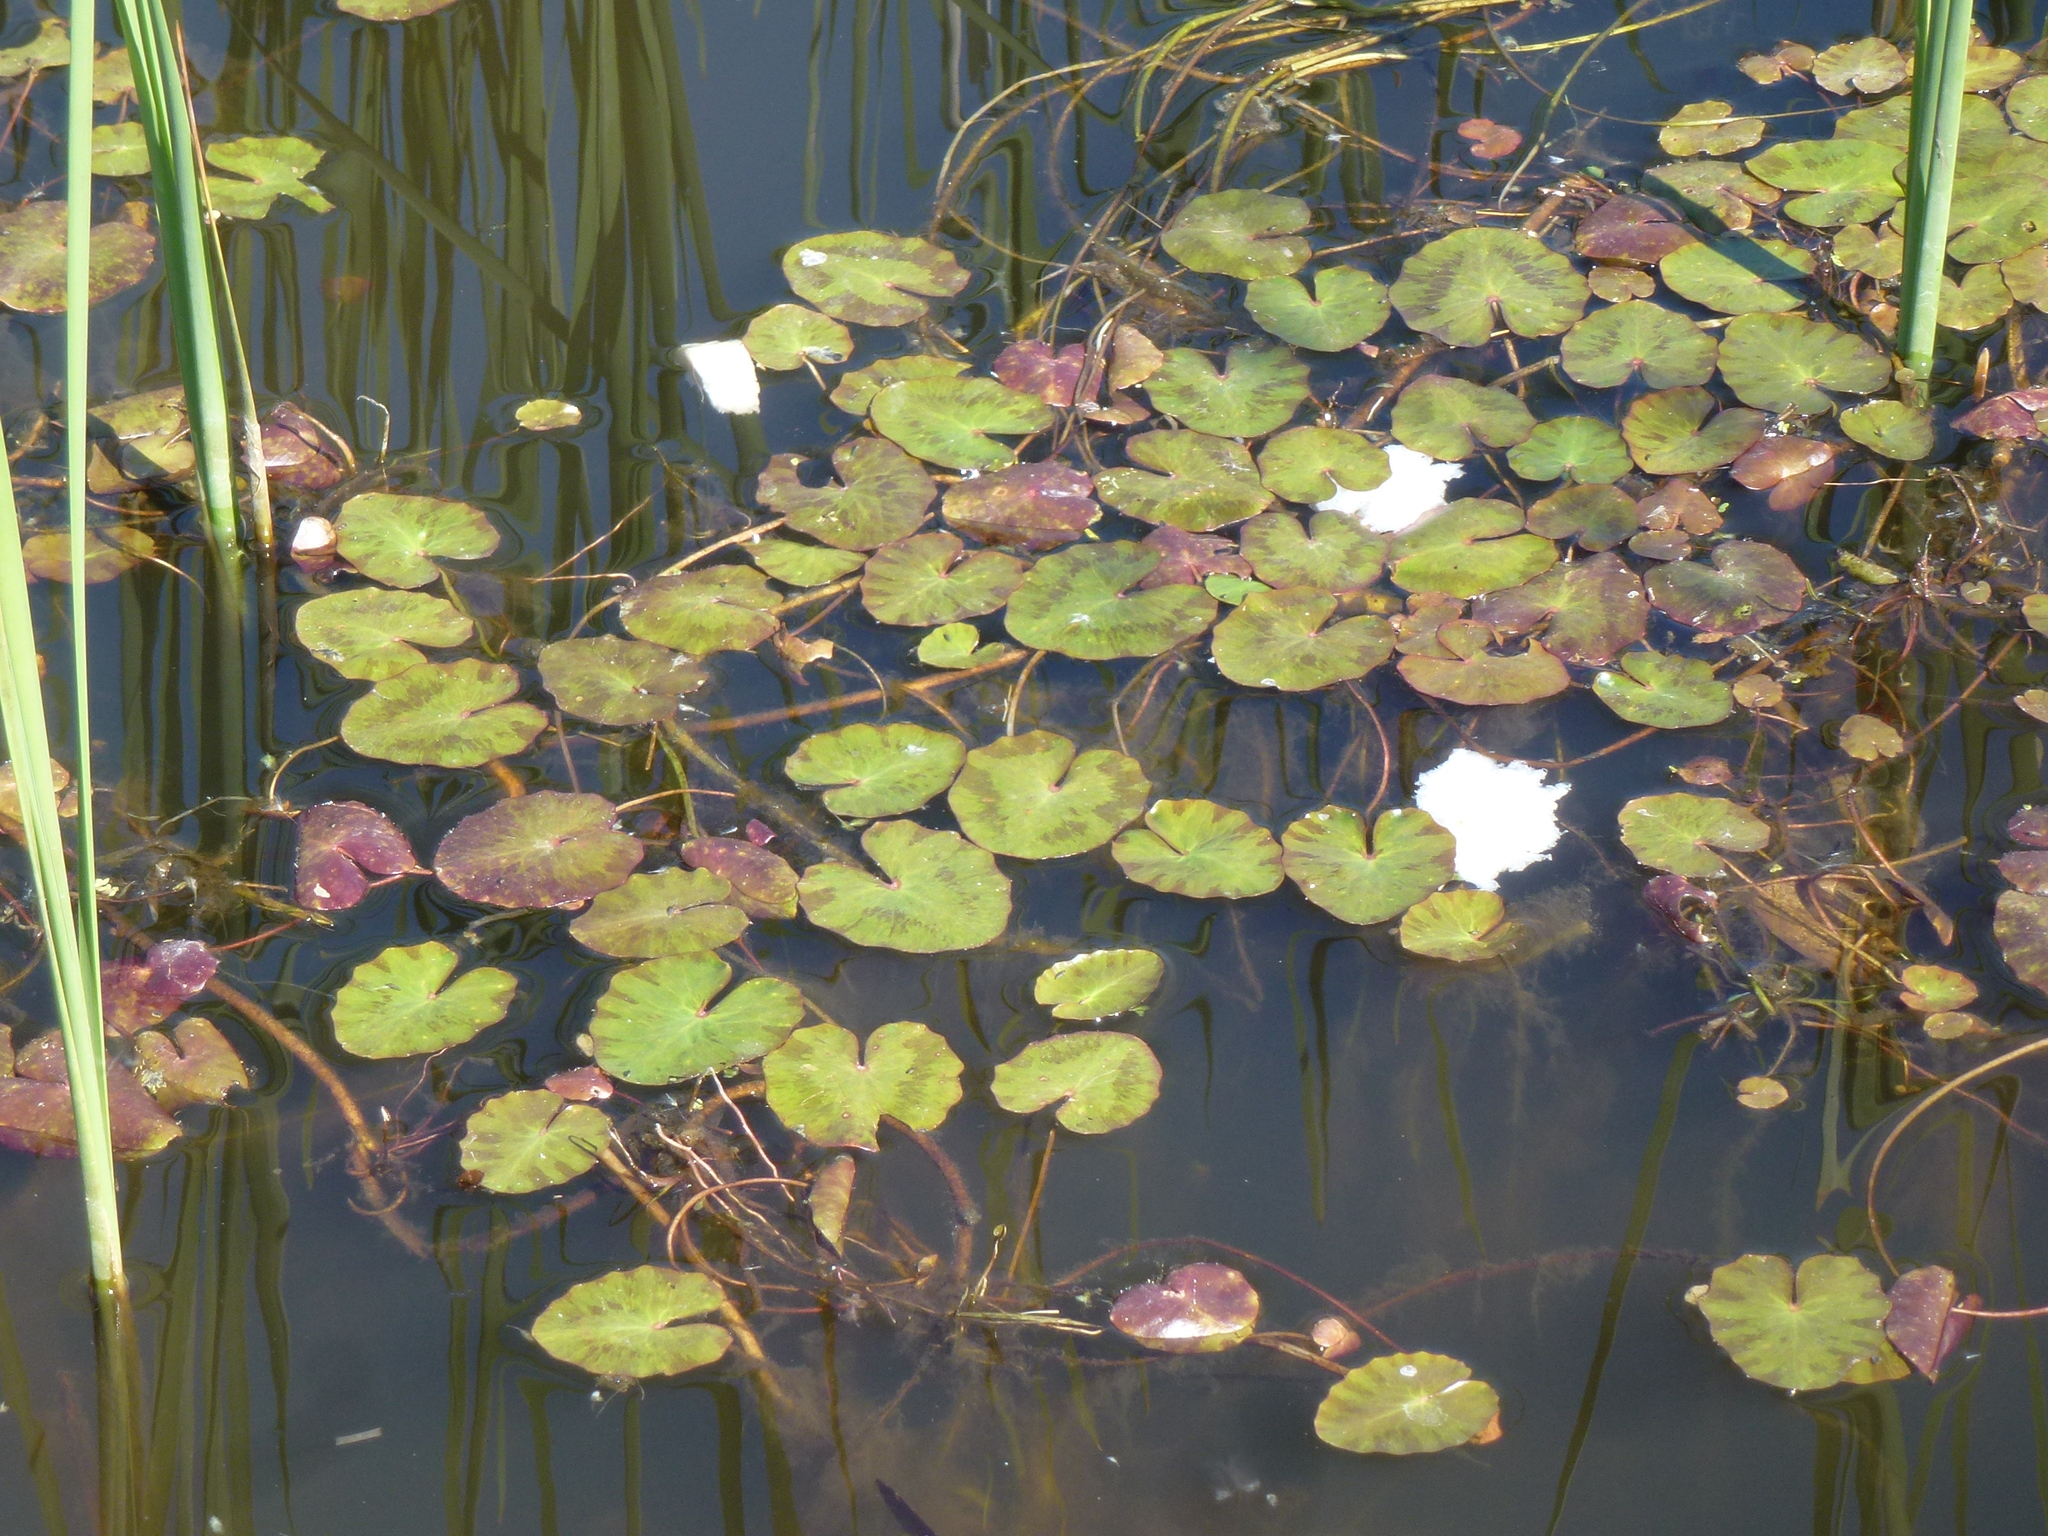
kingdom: Plantae
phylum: Tracheophyta
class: Magnoliopsida
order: Asterales
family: Menyanthaceae
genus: Nymphoides
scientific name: Nymphoides peltata
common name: Fringed water-lily
